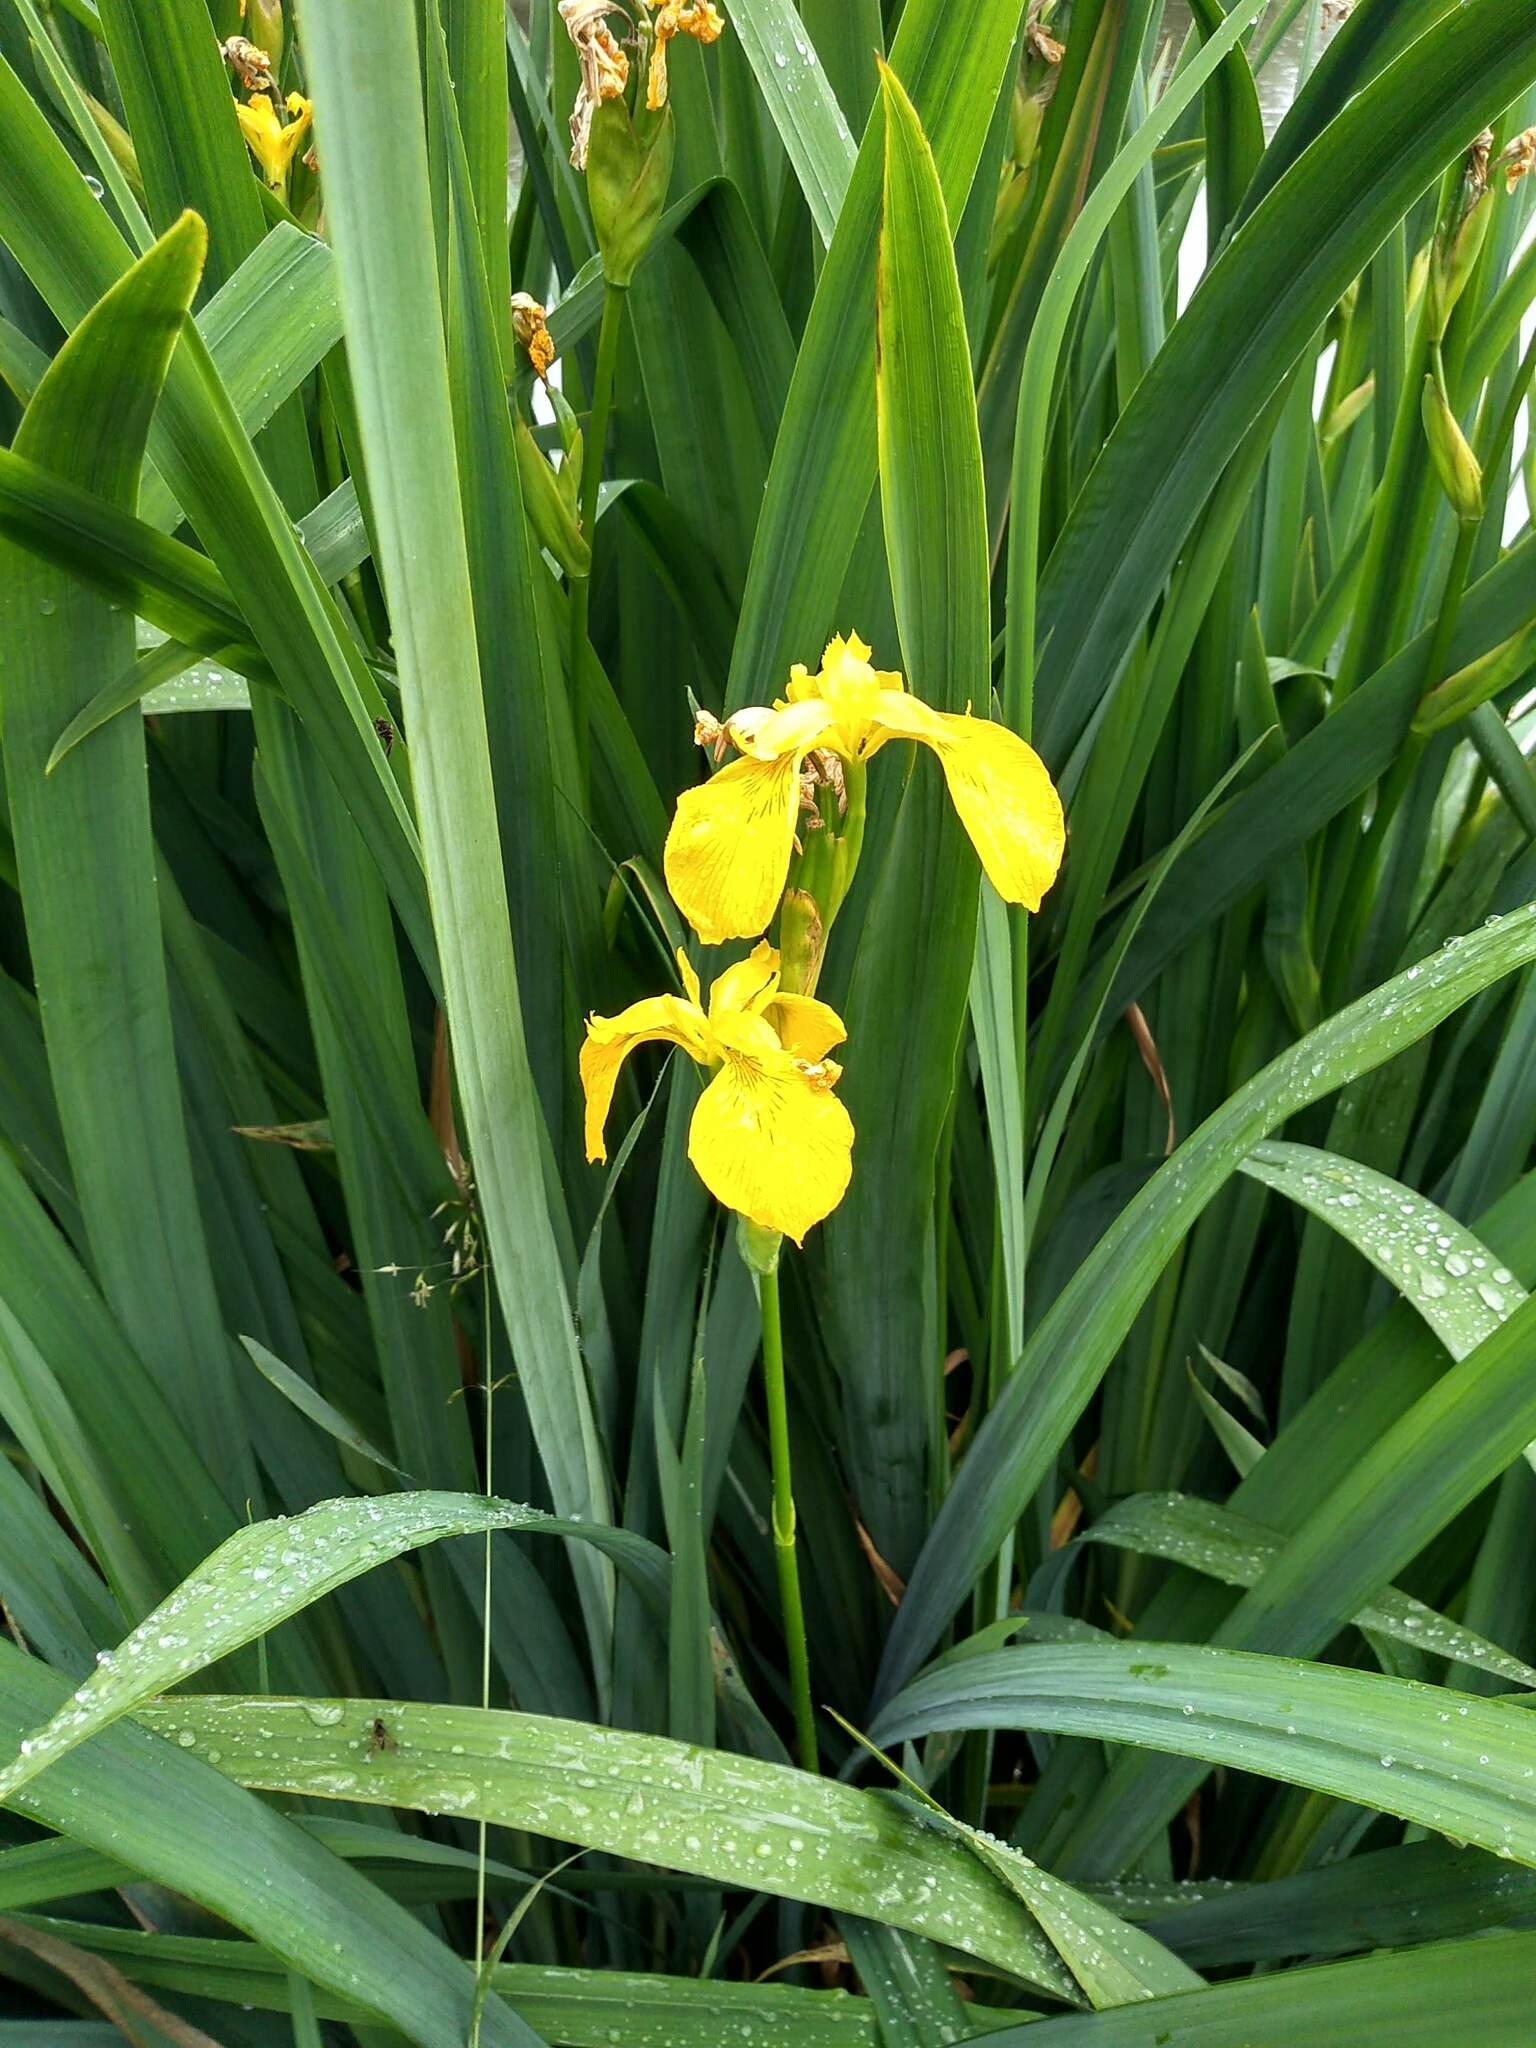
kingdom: Plantae
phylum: Tracheophyta
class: Liliopsida
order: Asparagales
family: Iridaceae
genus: Iris
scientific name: Iris pseudacorus
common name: Yellow flag
